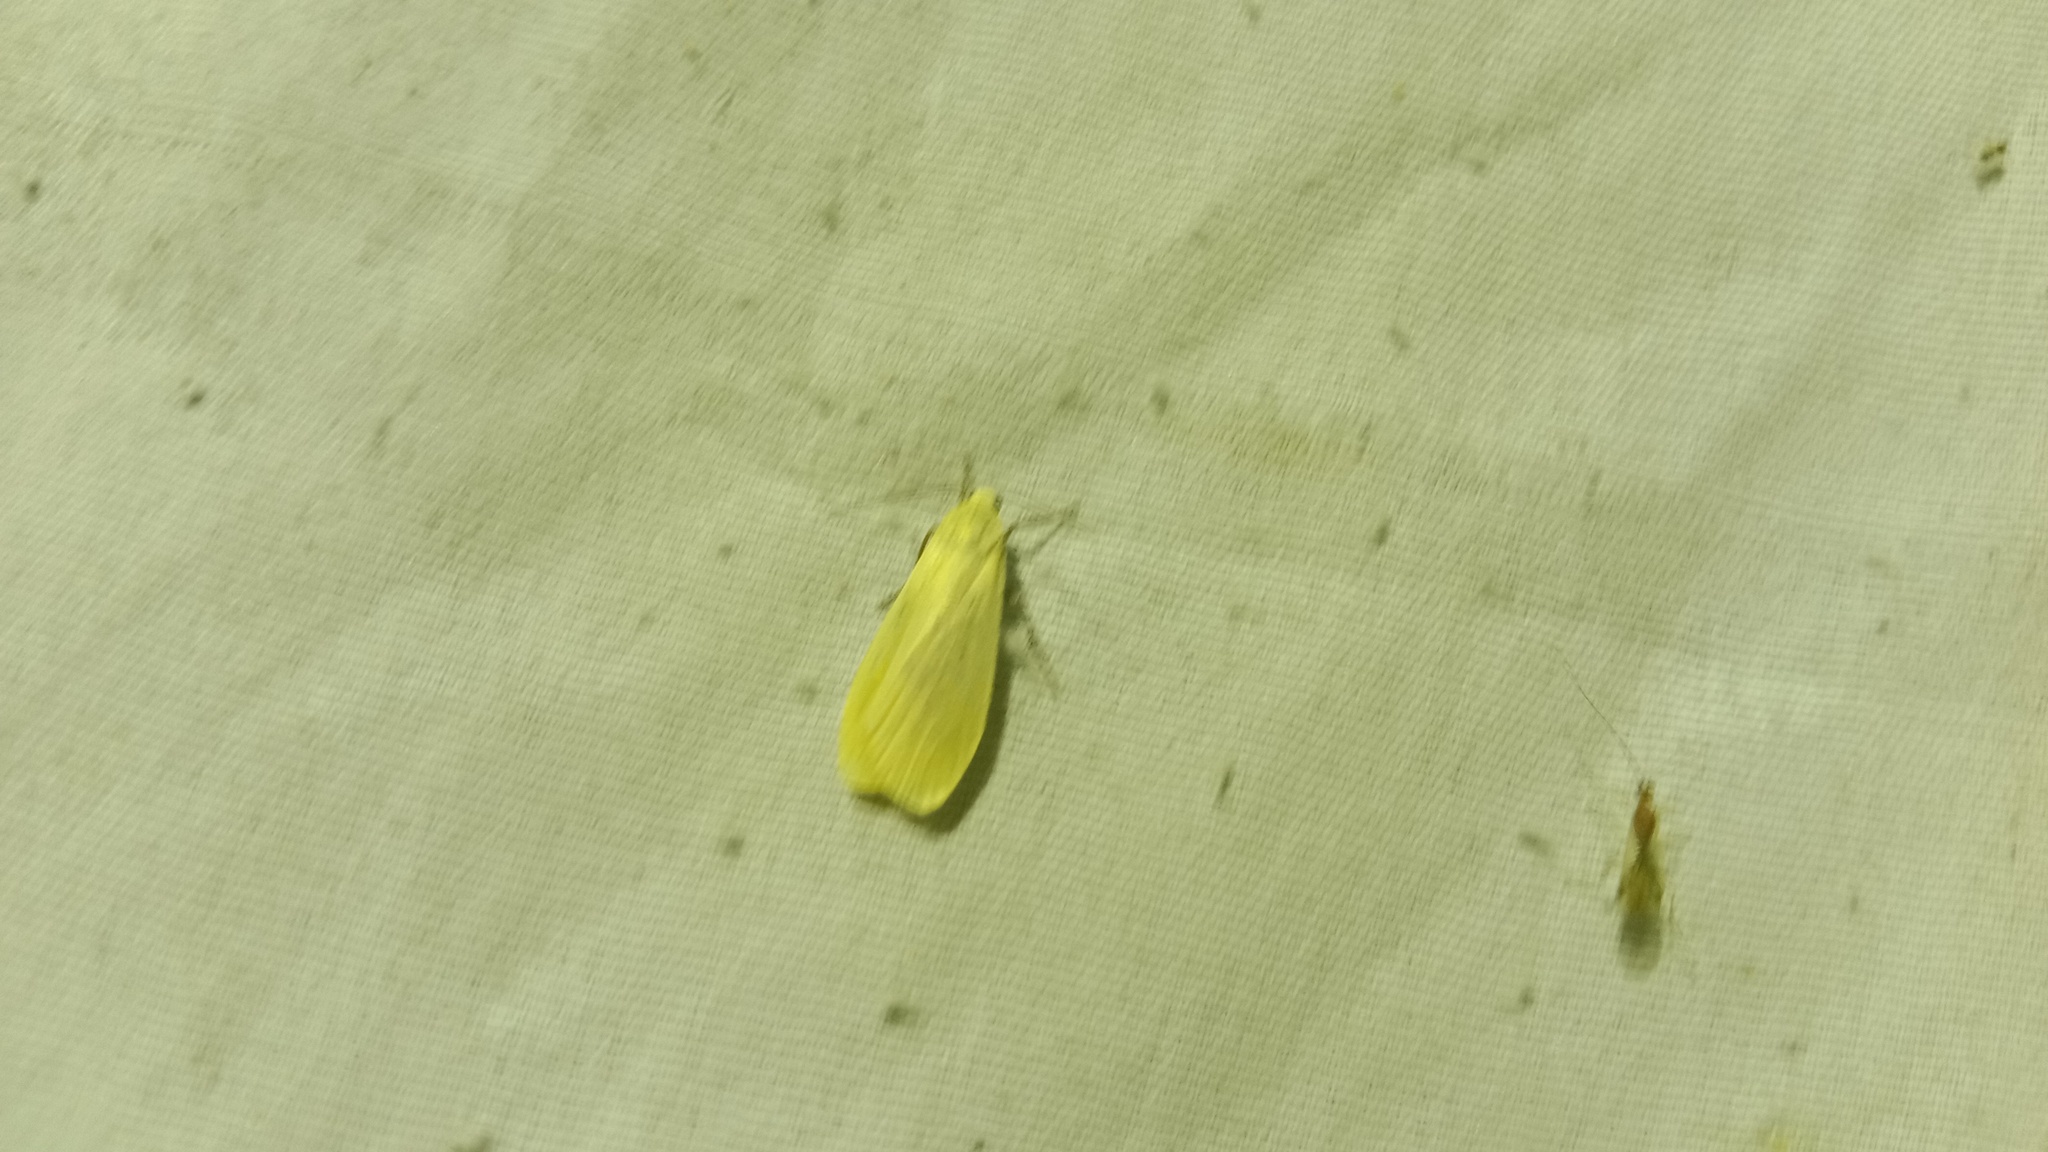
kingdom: Animalia
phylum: Arthropoda
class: Insecta
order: Lepidoptera
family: Erebidae
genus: Wittia
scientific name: Wittia sororcula
